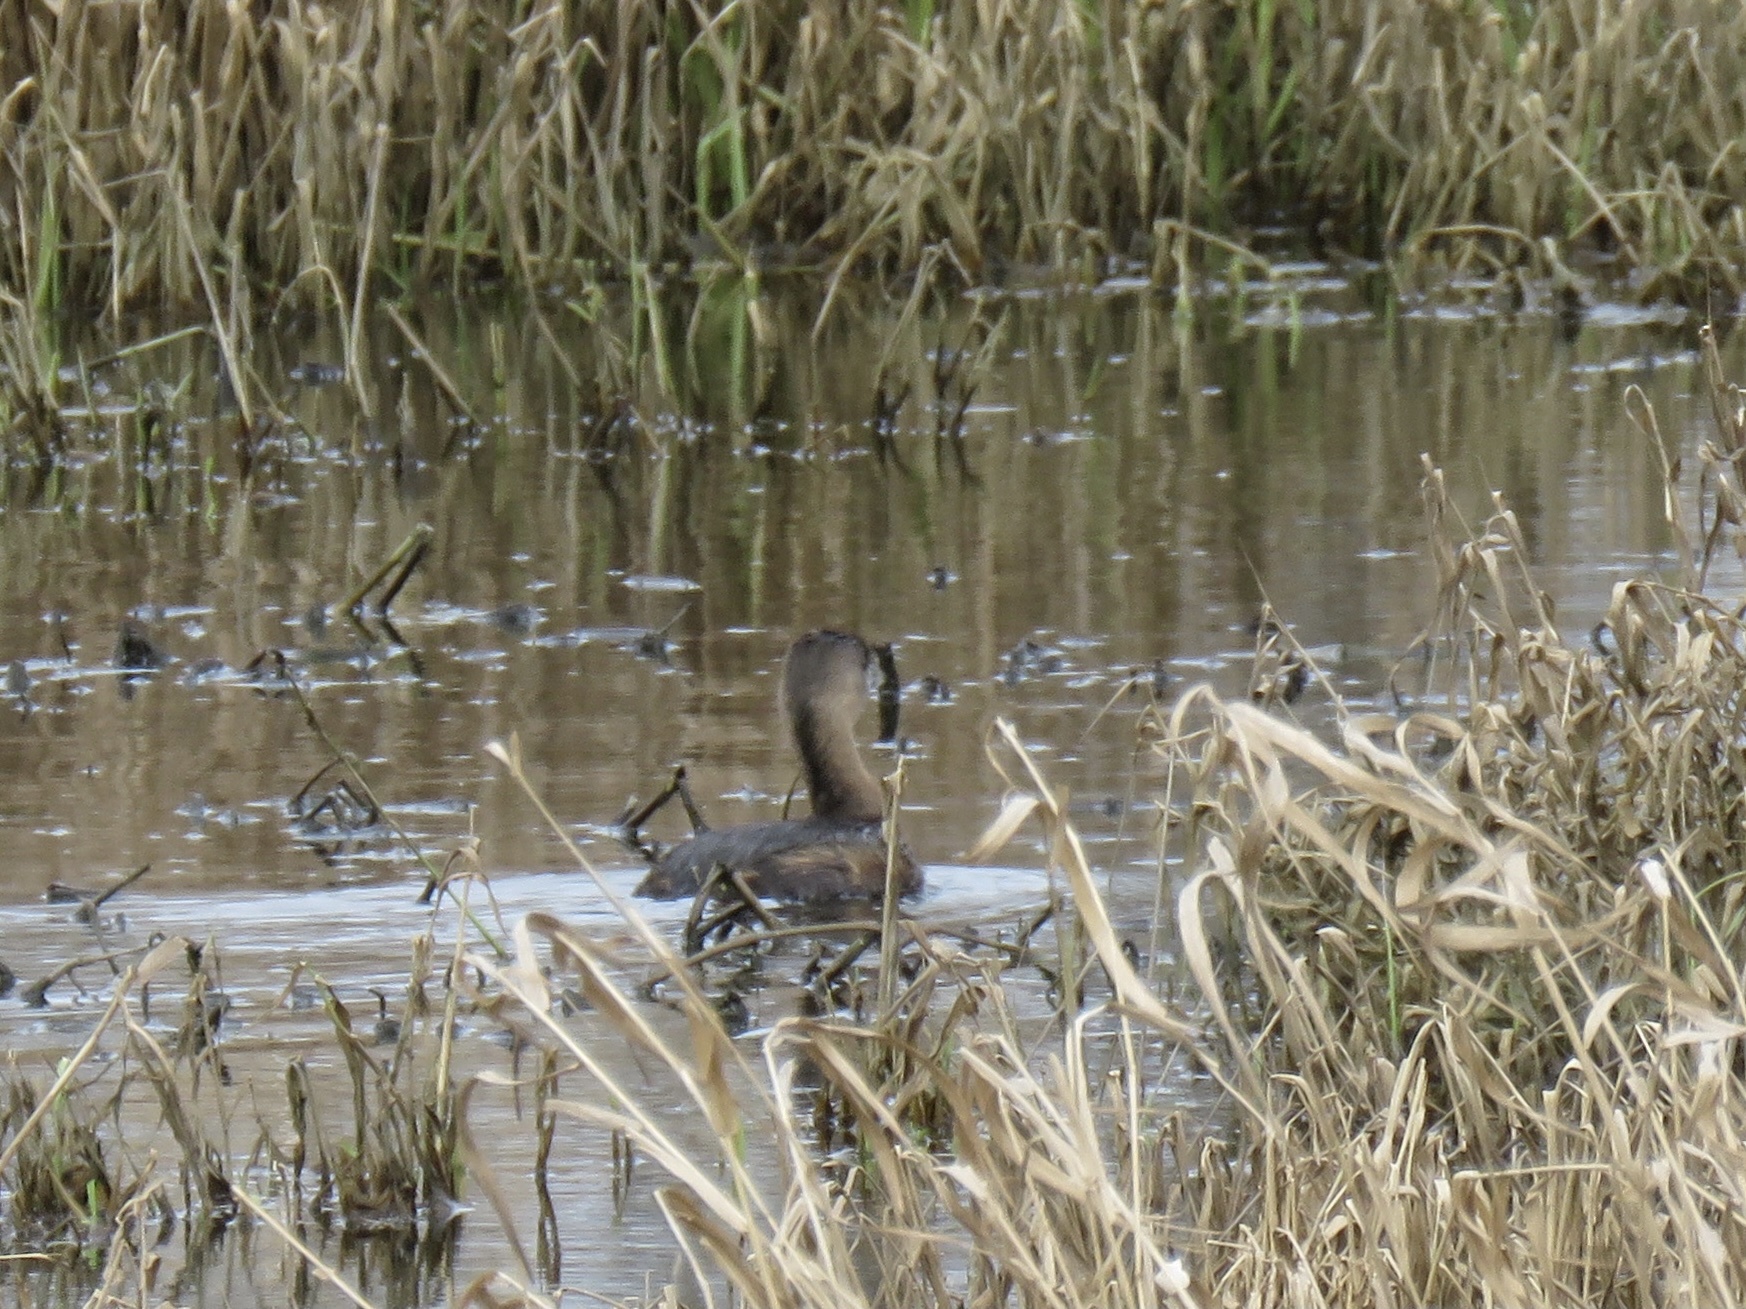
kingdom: Animalia
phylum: Chordata
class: Aves
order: Podicipediformes
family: Podicipedidae
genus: Podilymbus
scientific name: Podilymbus podiceps
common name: Pied-billed grebe
